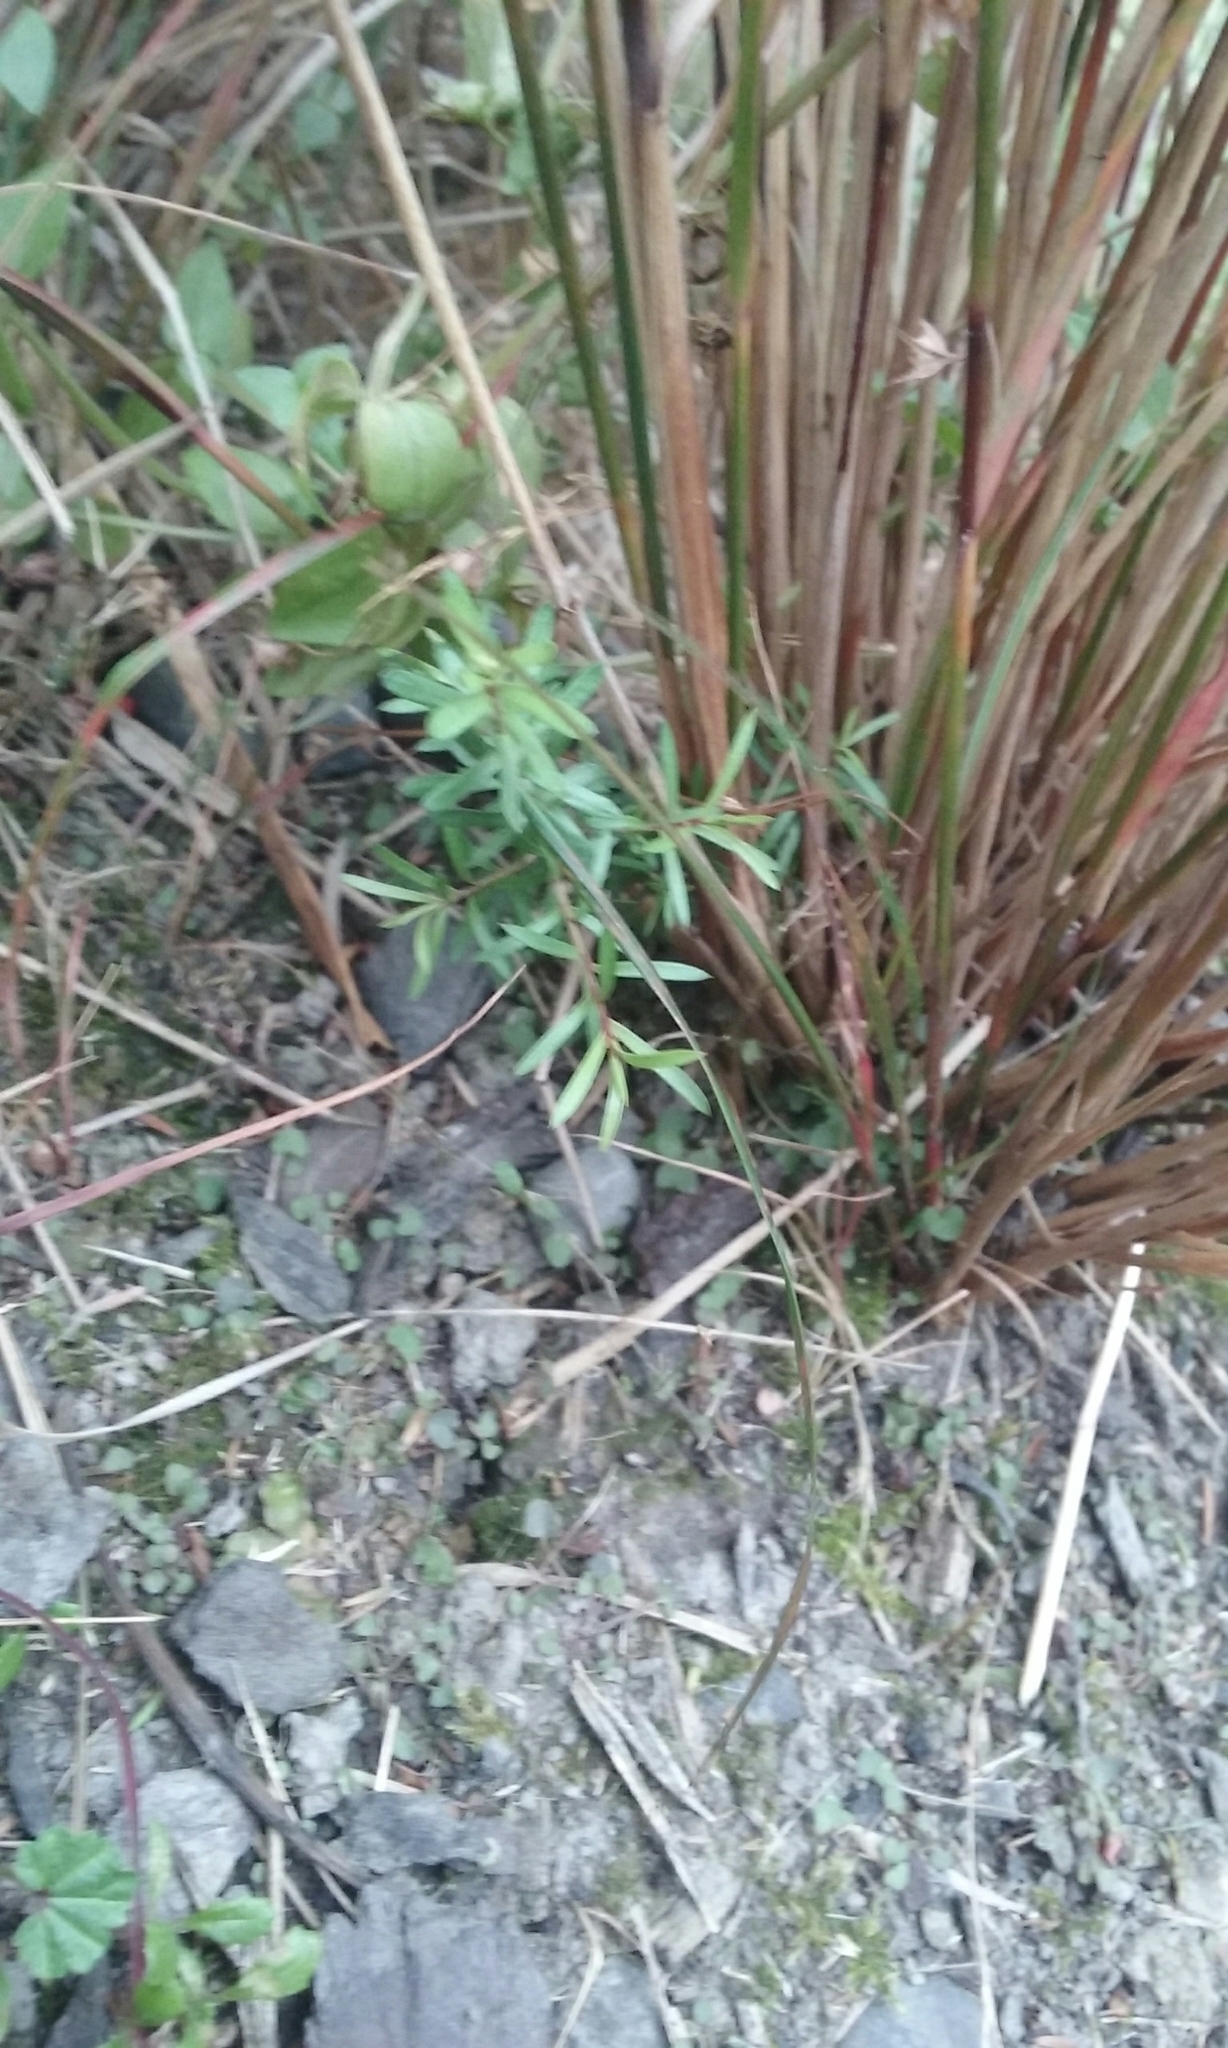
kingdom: Plantae
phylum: Tracheophyta
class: Magnoliopsida
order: Myrtales
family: Myrtaceae
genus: Kunzea
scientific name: Kunzea robusta
